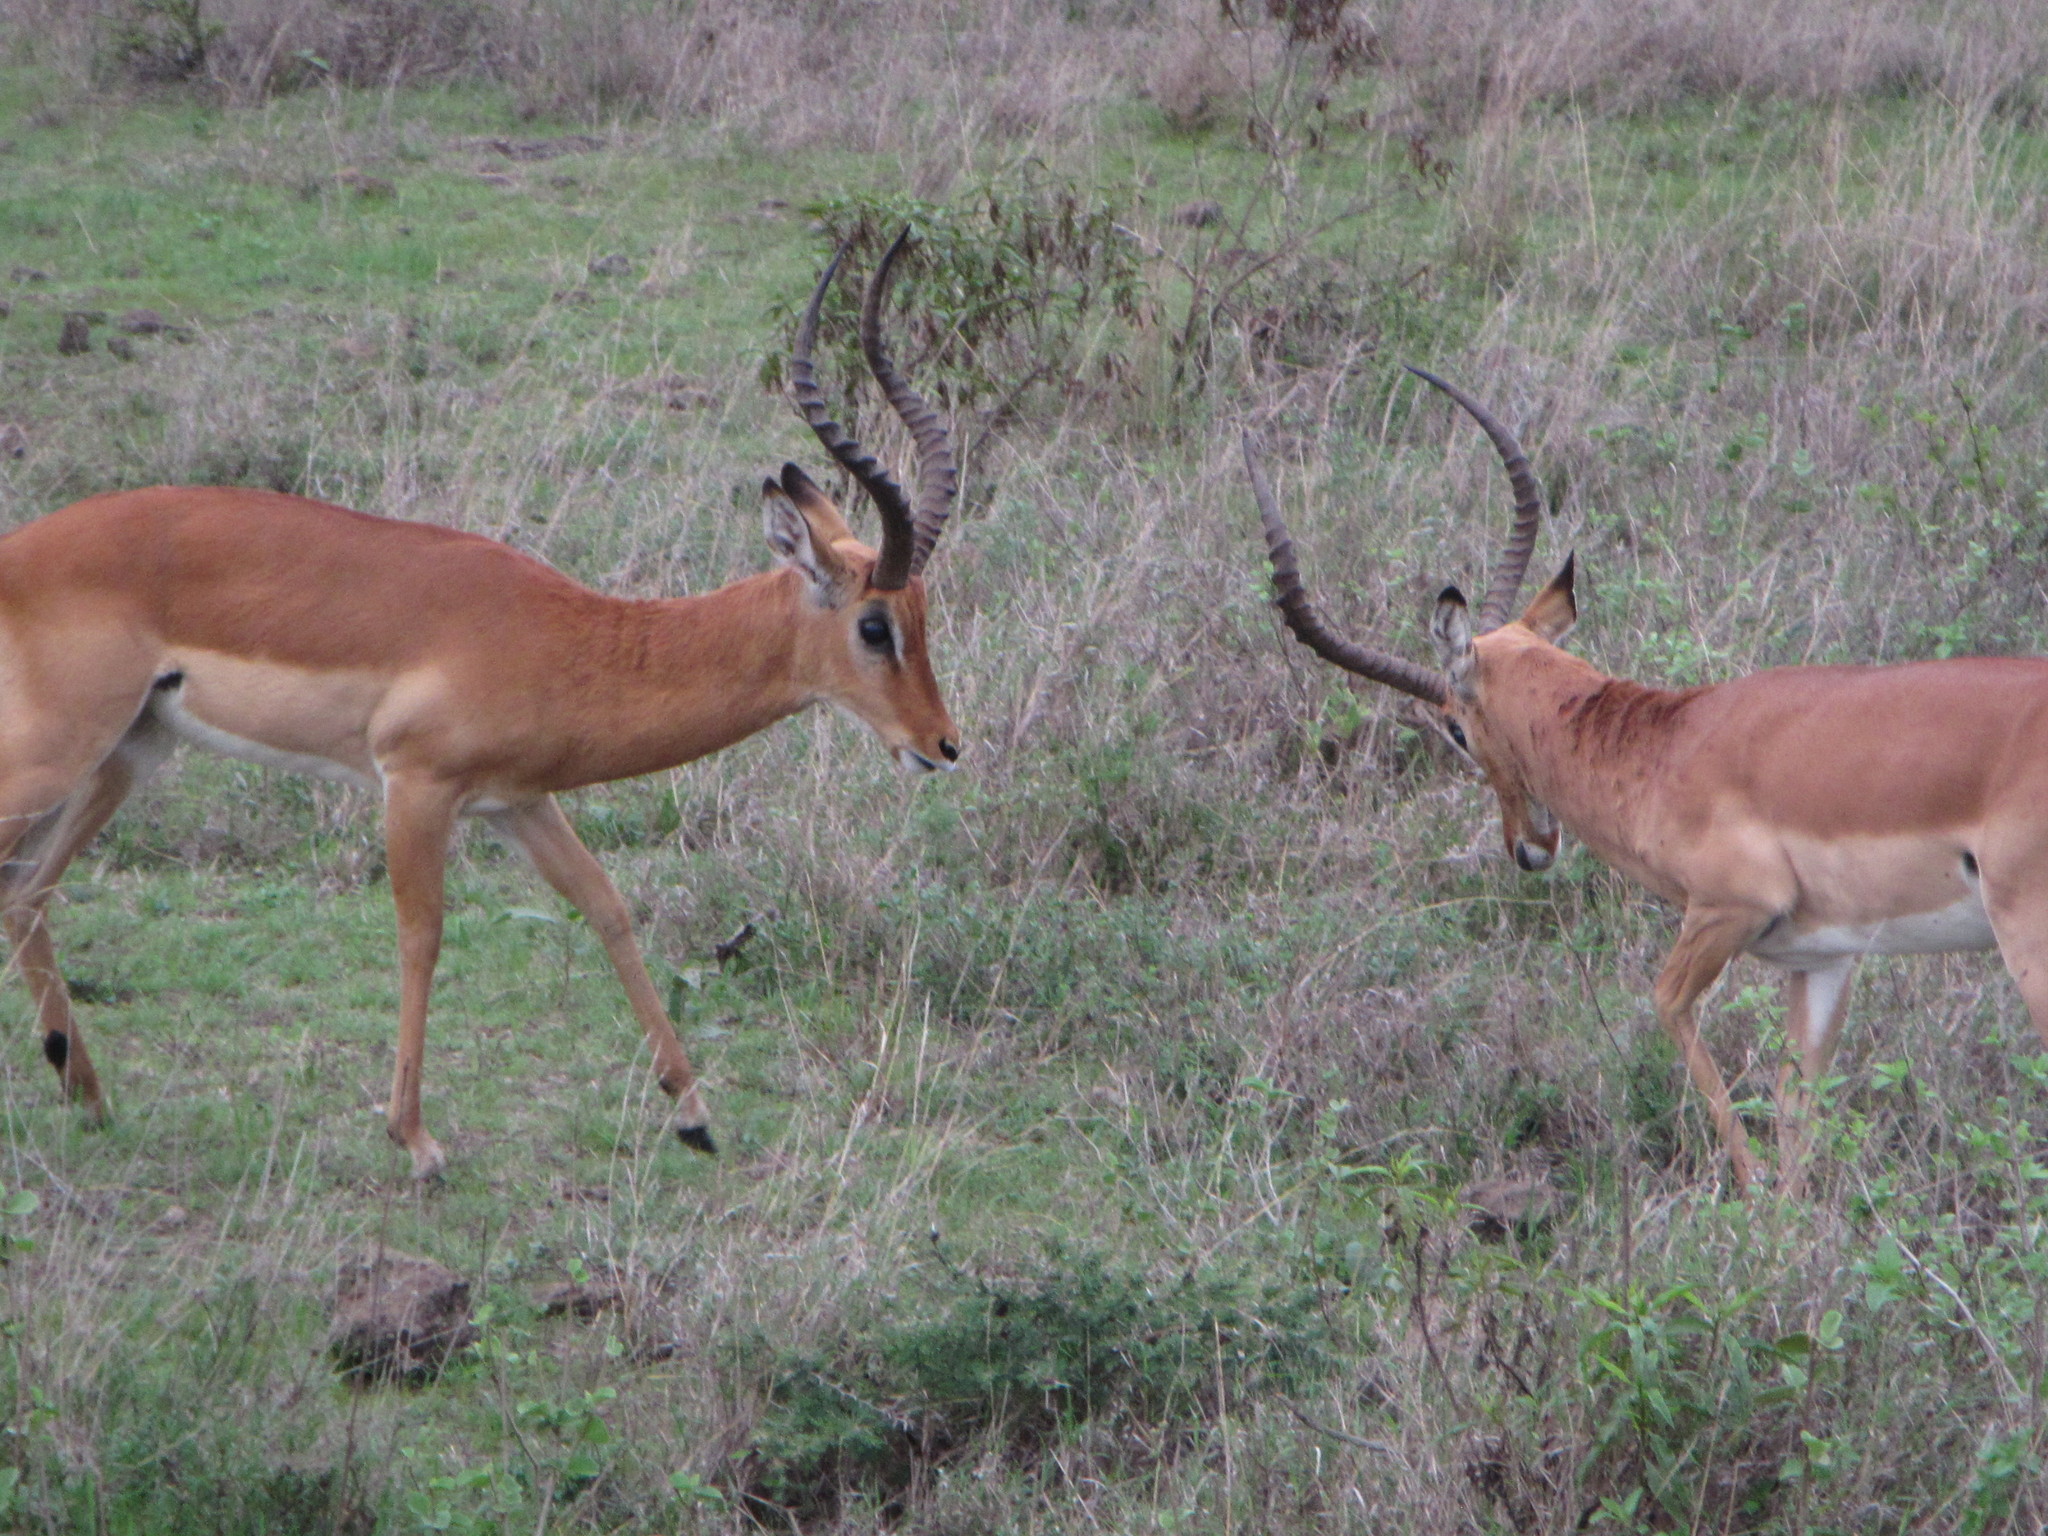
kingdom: Animalia
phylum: Chordata
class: Mammalia
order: Artiodactyla
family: Bovidae
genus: Aepyceros
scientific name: Aepyceros melampus
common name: Impala
